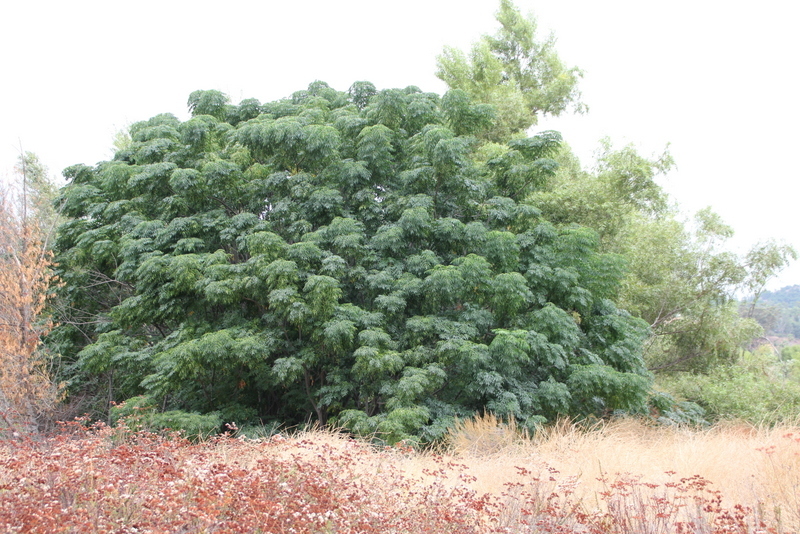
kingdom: Plantae
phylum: Tracheophyta
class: Magnoliopsida
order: Sapindales
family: Meliaceae
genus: Melia
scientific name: Melia azedarach
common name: Chinaberrytree
